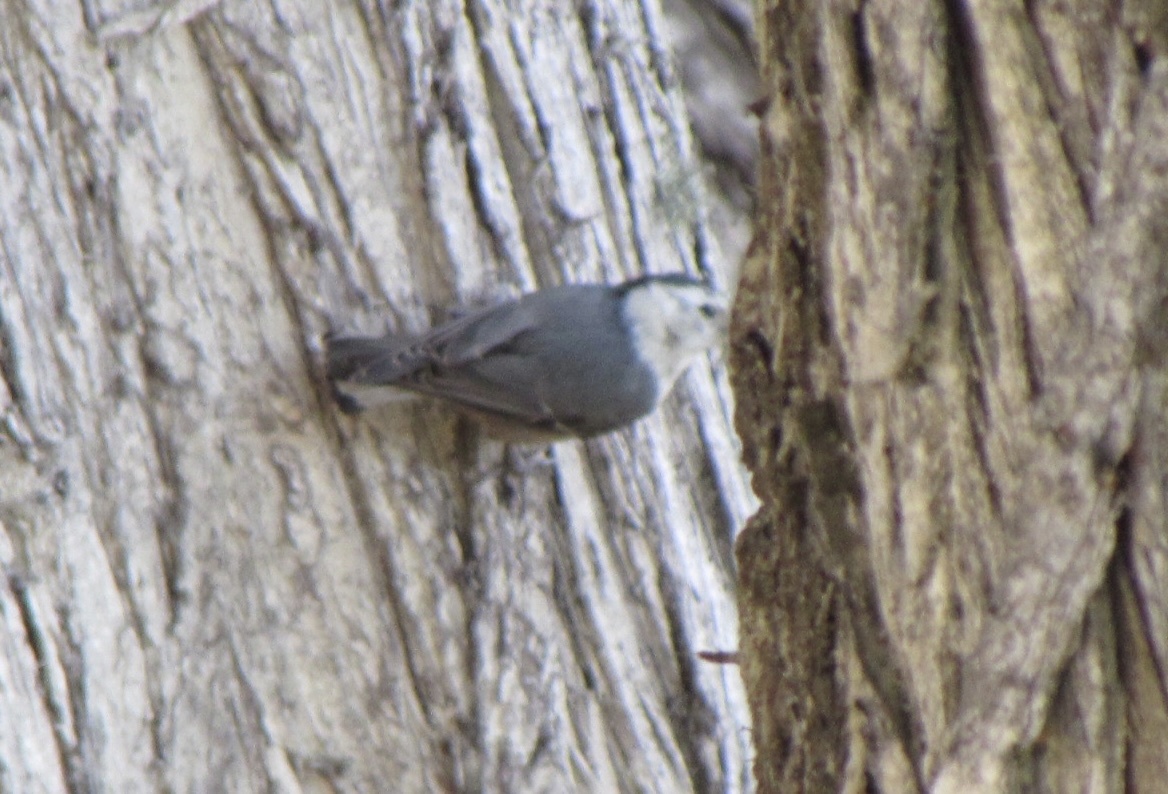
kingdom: Animalia
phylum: Chordata
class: Aves
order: Passeriformes
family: Sittidae
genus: Sitta
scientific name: Sitta carolinensis
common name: White-breasted nuthatch
